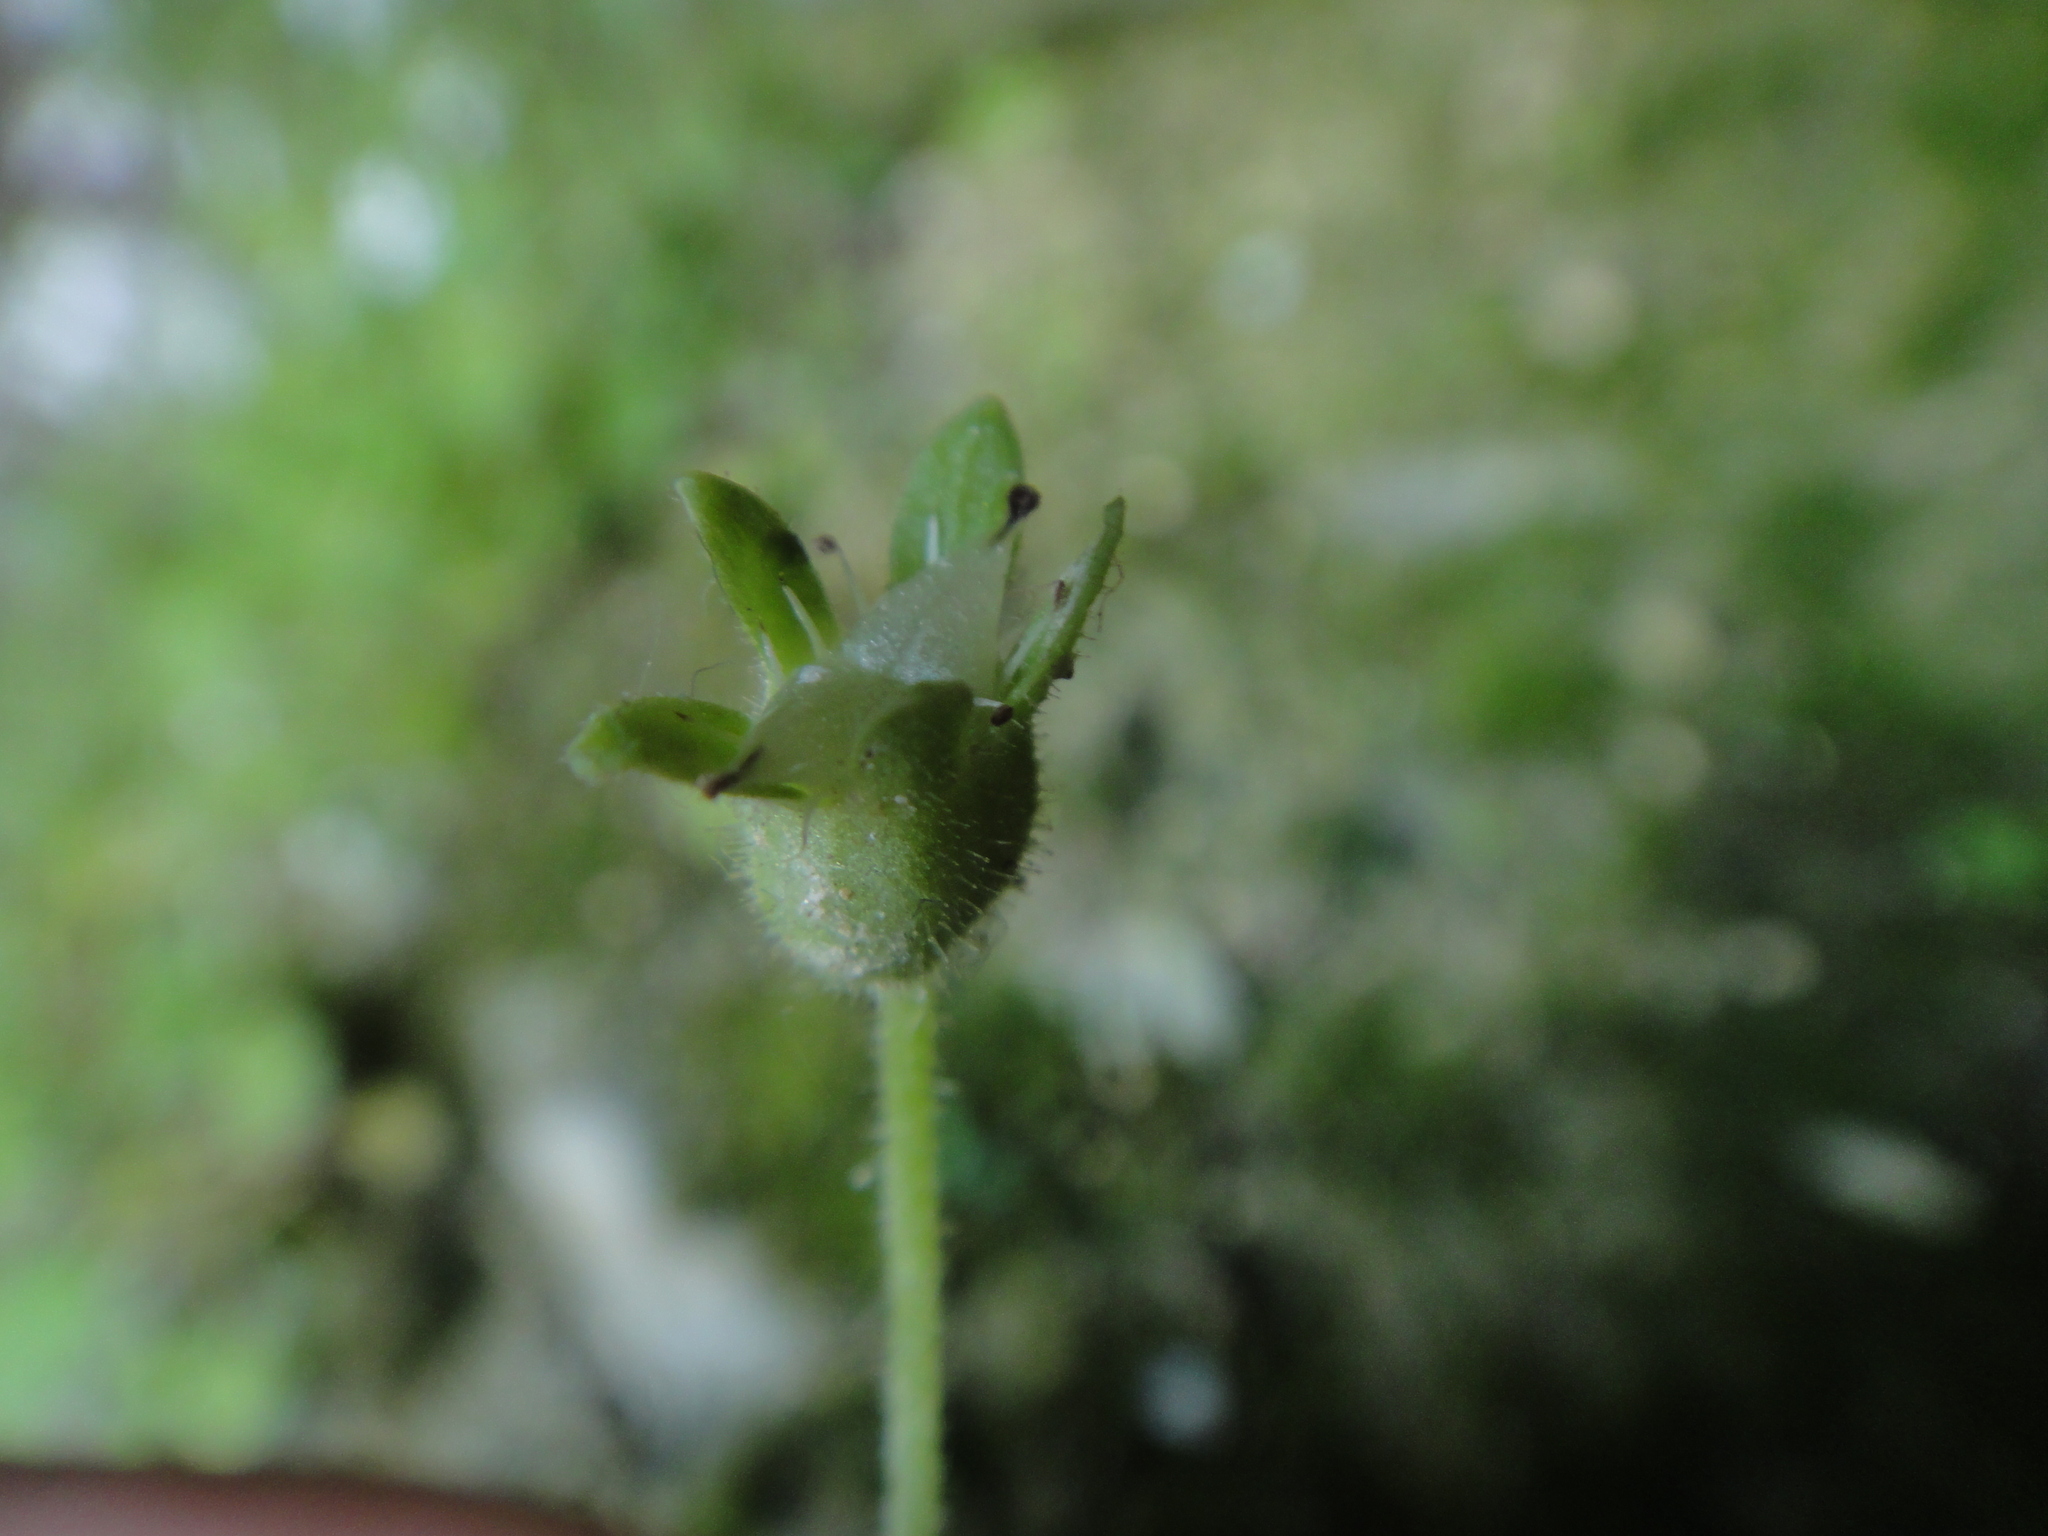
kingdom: Plantae
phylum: Tracheophyta
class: Magnoliopsida
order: Saxifragales
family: Saxifragaceae
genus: Saxifraga
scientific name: Saxifraga petraea
